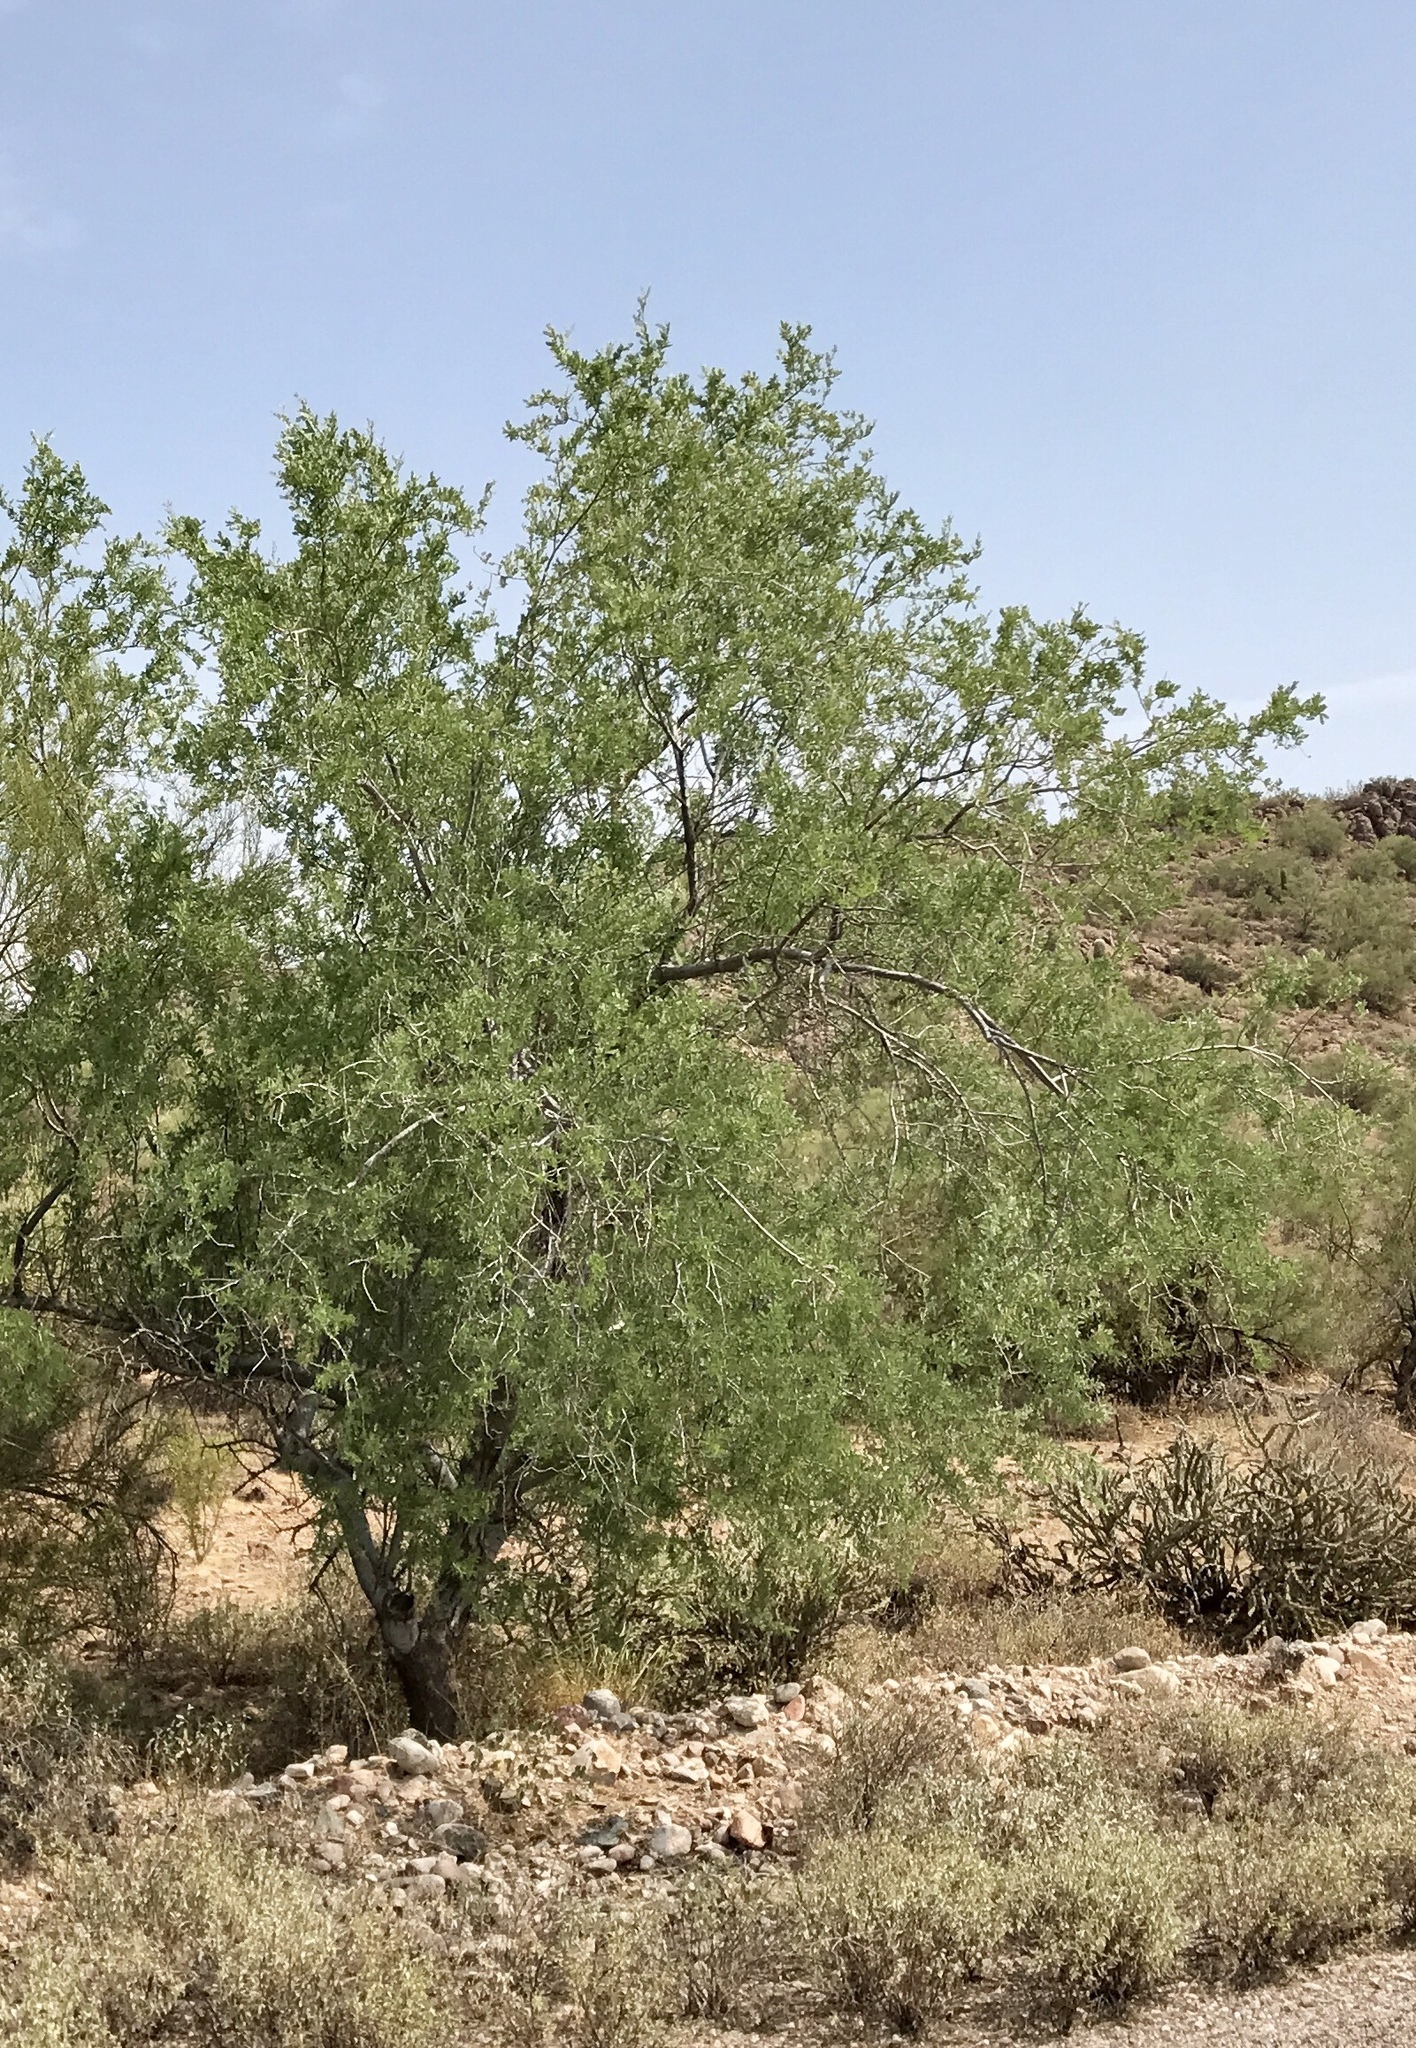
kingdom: Plantae
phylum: Tracheophyta
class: Magnoliopsida
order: Fabales
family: Fabaceae
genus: Olneya
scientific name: Olneya tesota
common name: Desert ironwood
